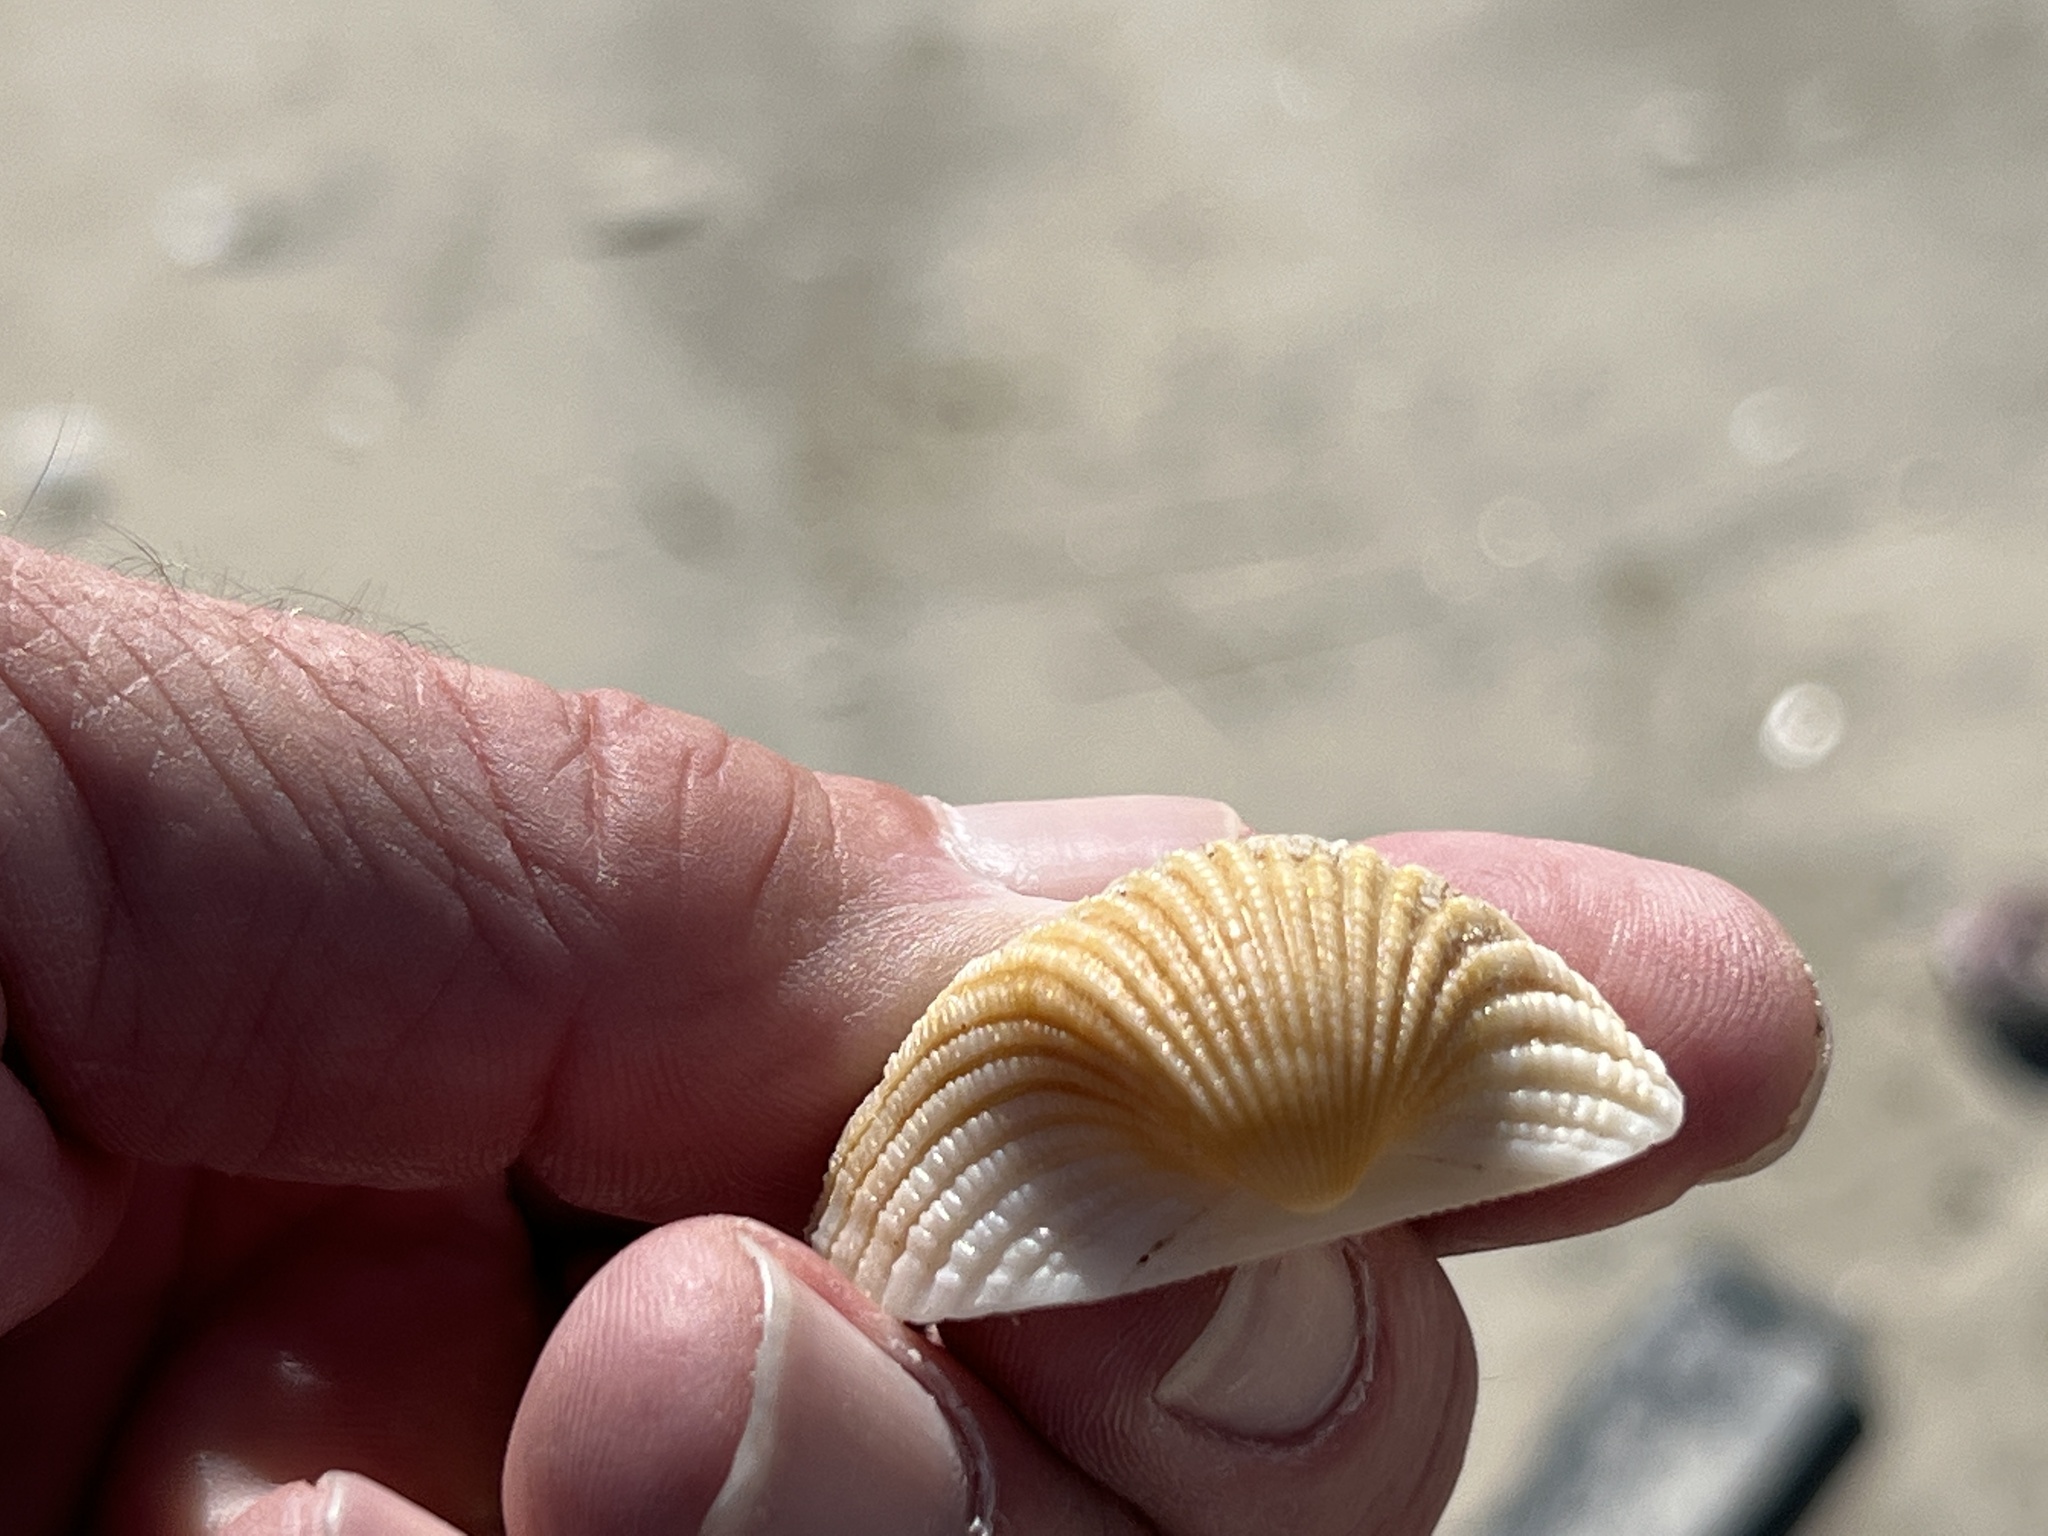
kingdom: Animalia
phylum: Mollusca
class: Bivalvia
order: Arcida
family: Arcidae
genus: Anadara
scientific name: Anadara brasiliana
